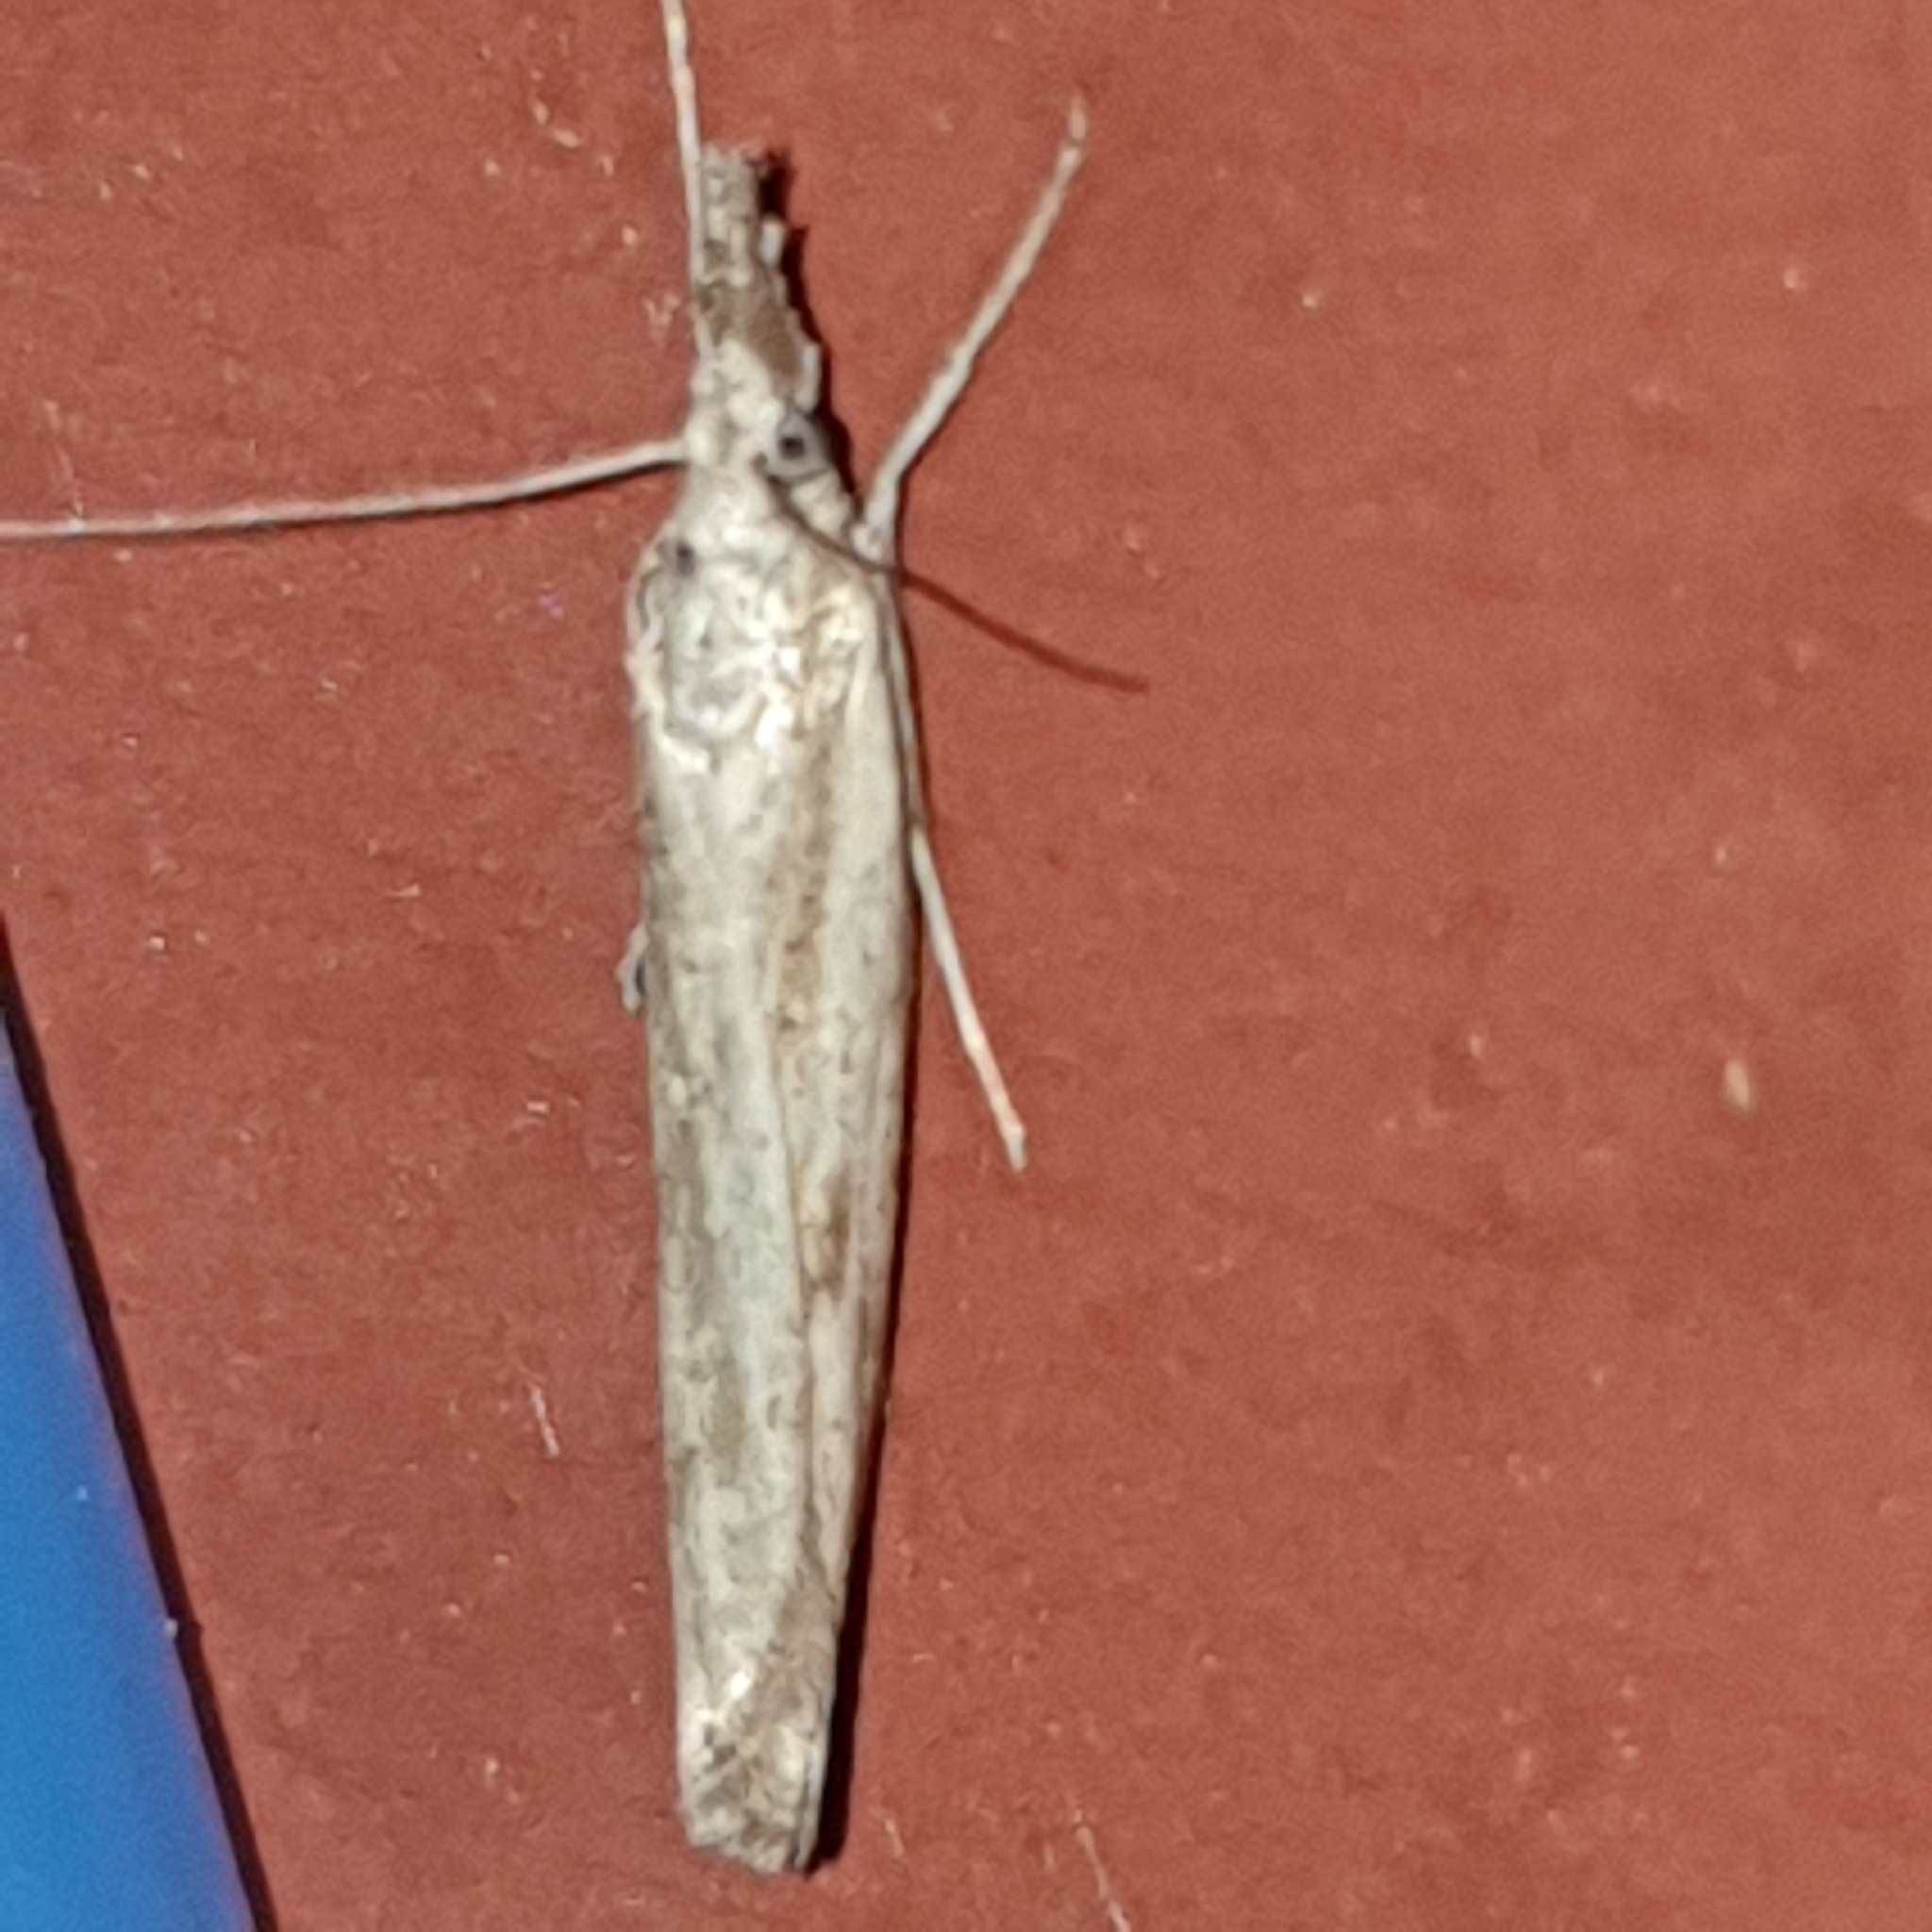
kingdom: Animalia
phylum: Arthropoda
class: Insecta
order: Lepidoptera
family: Crambidae
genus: Agriphila
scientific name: Agriphila inquinatella
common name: Barred grass-veneer
